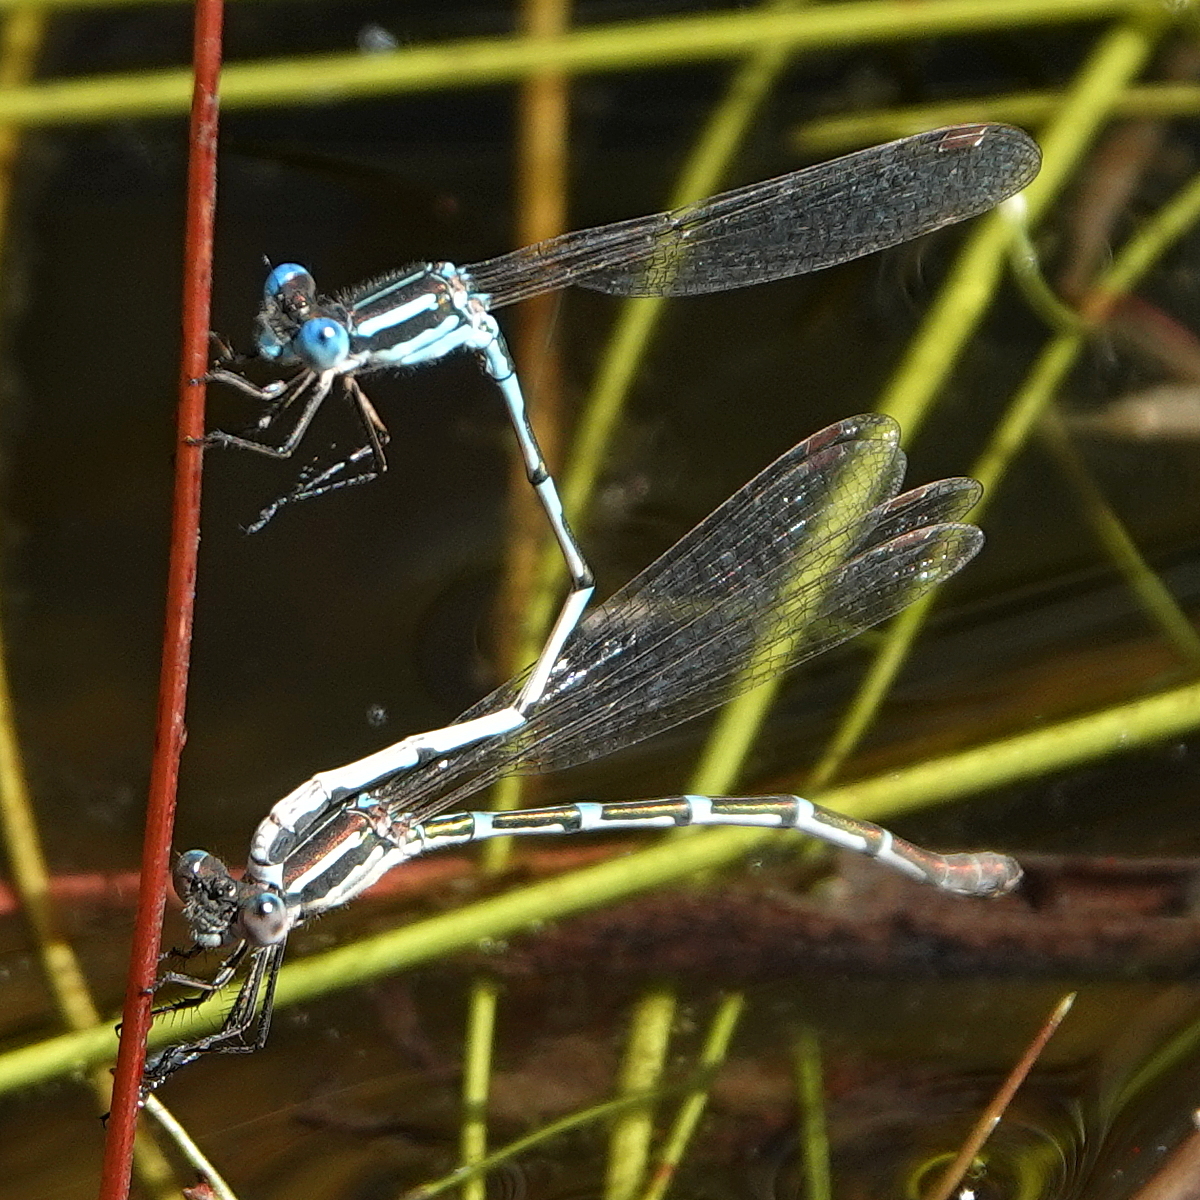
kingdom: Animalia
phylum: Arthropoda
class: Insecta
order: Odonata
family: Lestidae
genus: Austrolestes
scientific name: Austrolestes leda
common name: Wandering ringtail
